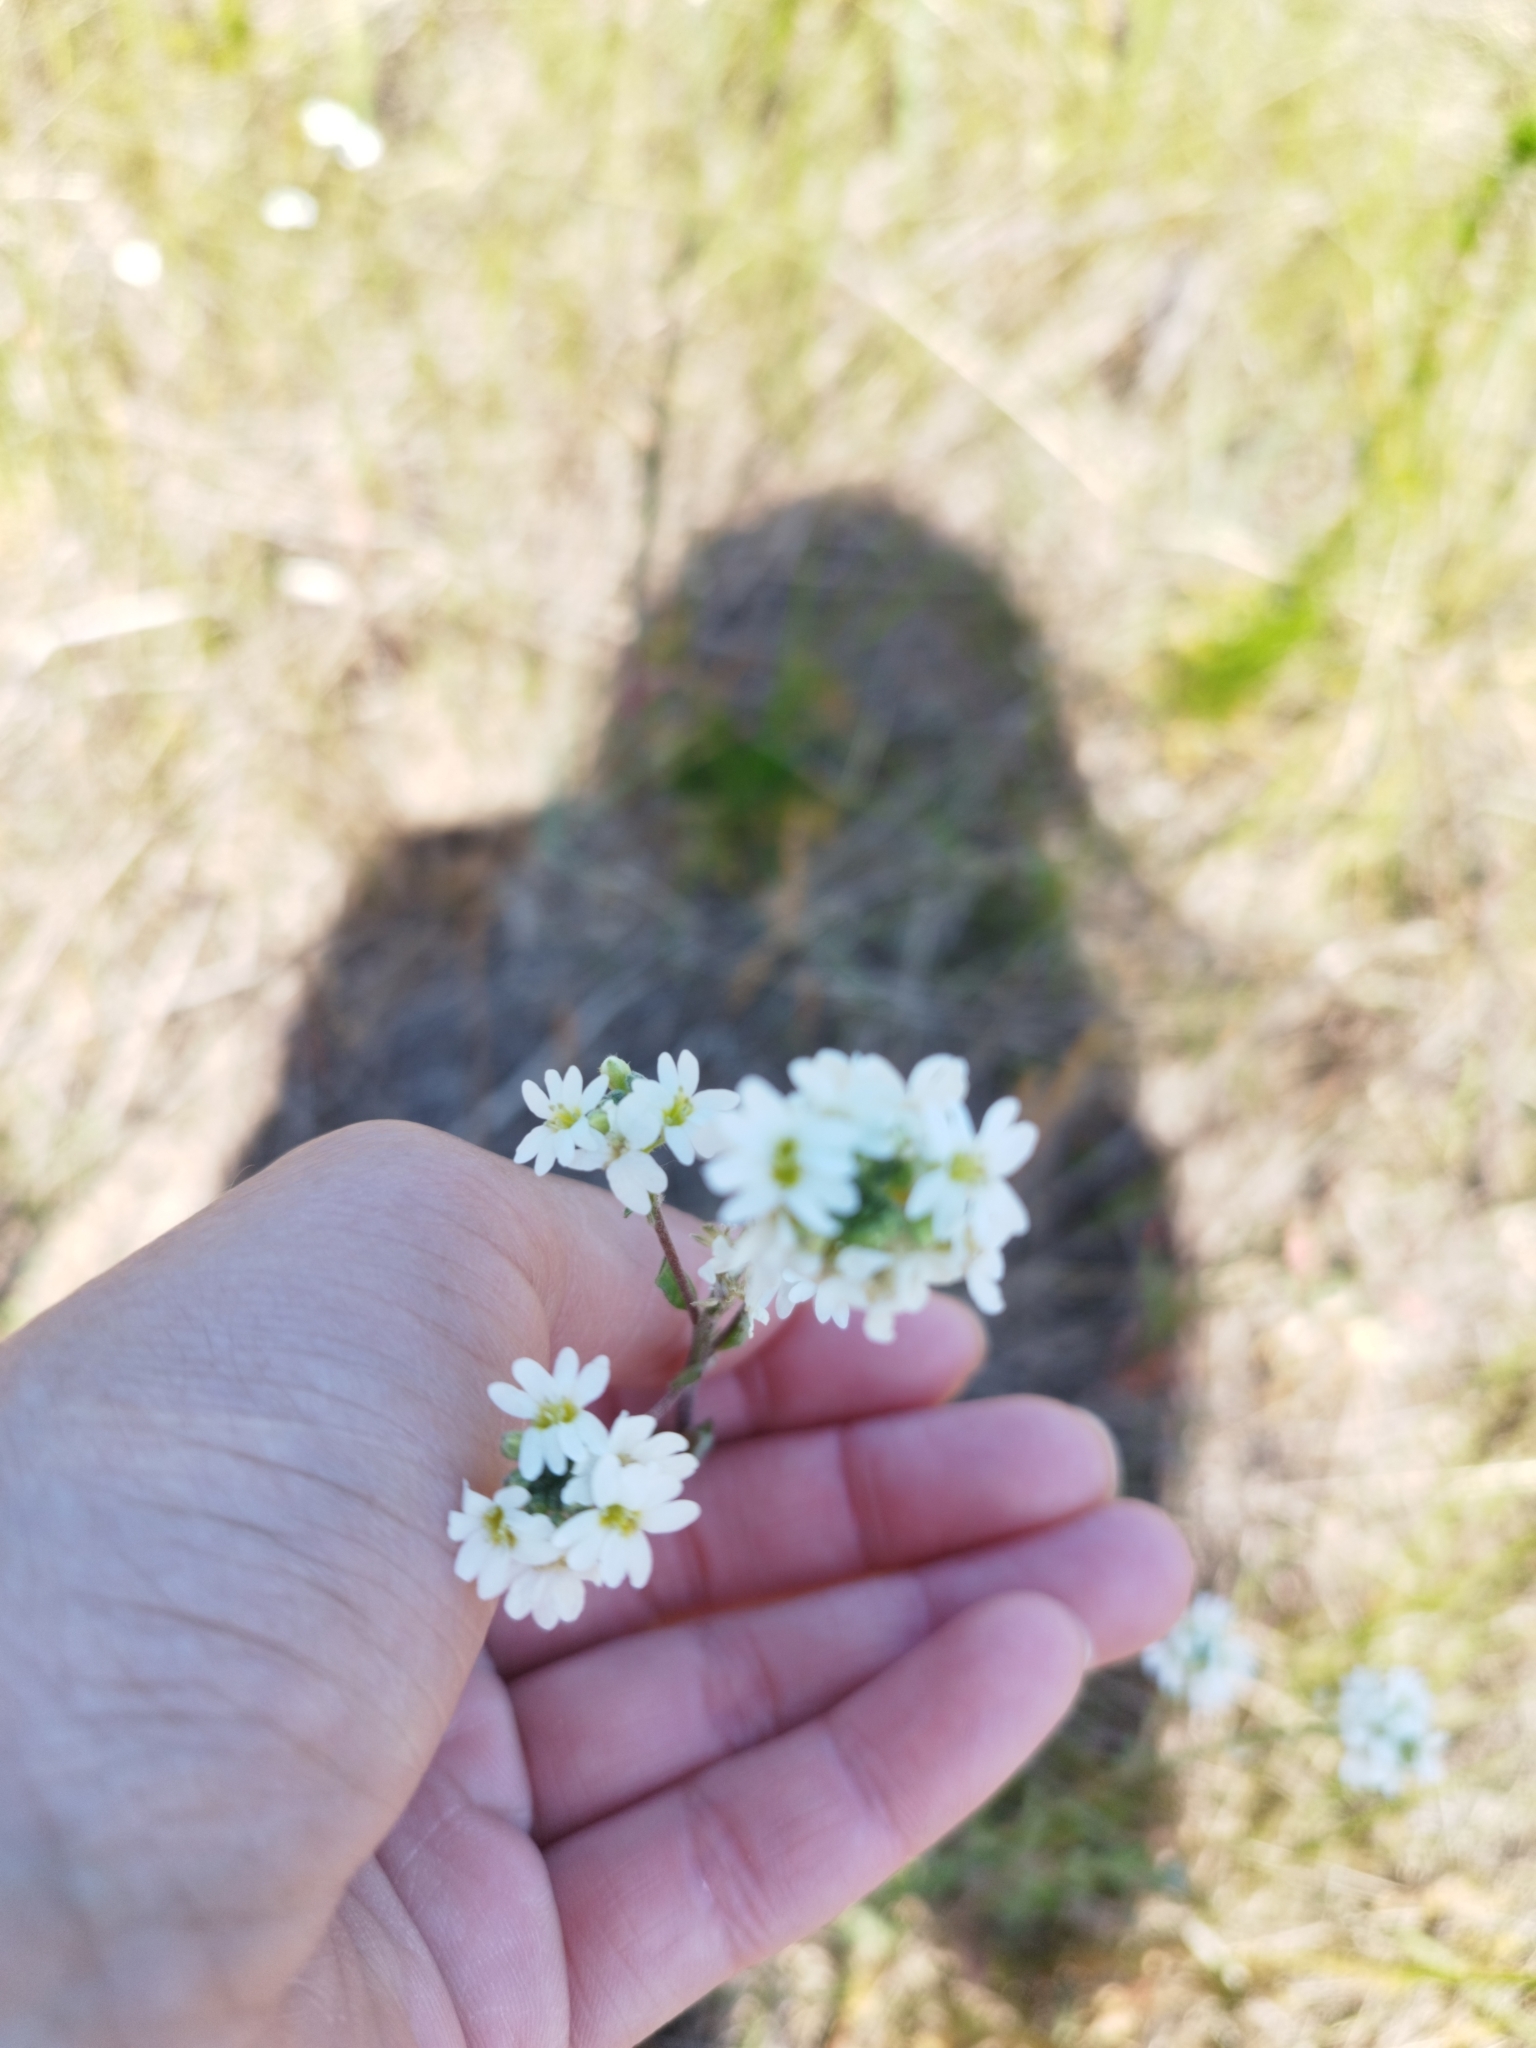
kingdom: Plantae
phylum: Tracheophyta
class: Magnoliopsida
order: Brassicales
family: Brassicaceae
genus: Berteroa
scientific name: Berteroa incana
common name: Hoary alison
